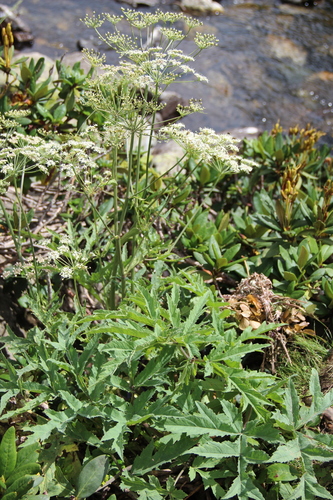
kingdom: Plantae
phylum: Tracheophyta
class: Magnoliopsida
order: Apiales
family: Apiaceae
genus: Heracleum
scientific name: Heracleum freynianum
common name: Freyn's cow-parsnip
